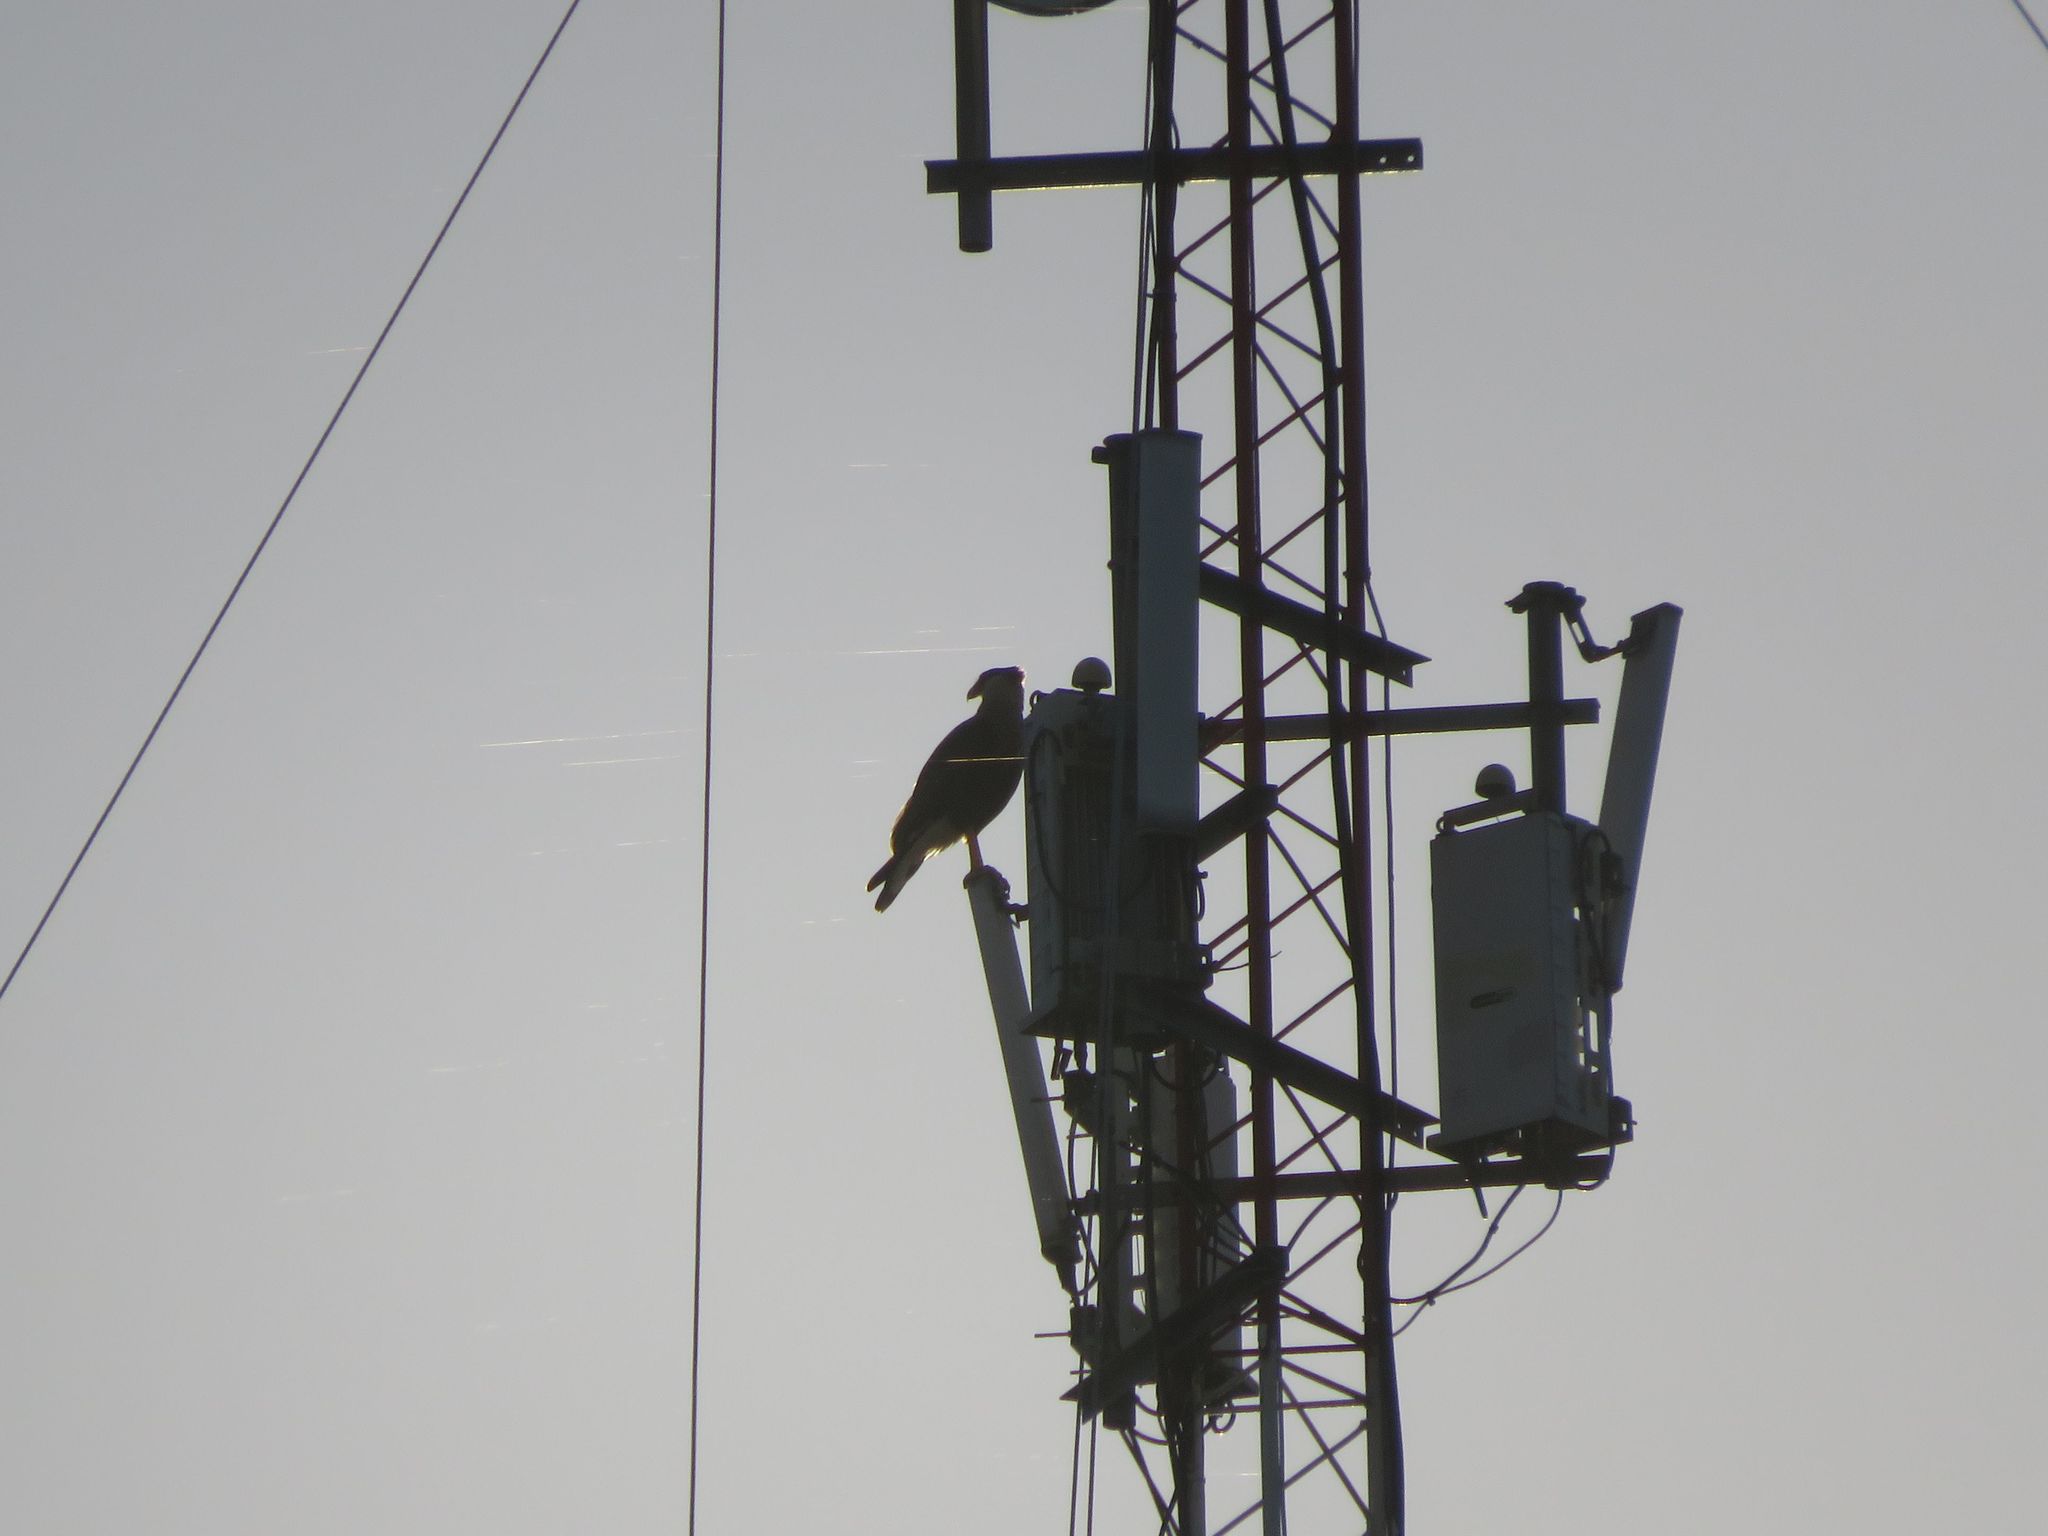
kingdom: Animalia
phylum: Chordata
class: Aves
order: Falconiformes
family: Falconidae
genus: Caracara
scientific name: Caracara plancus
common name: Southern caracara
